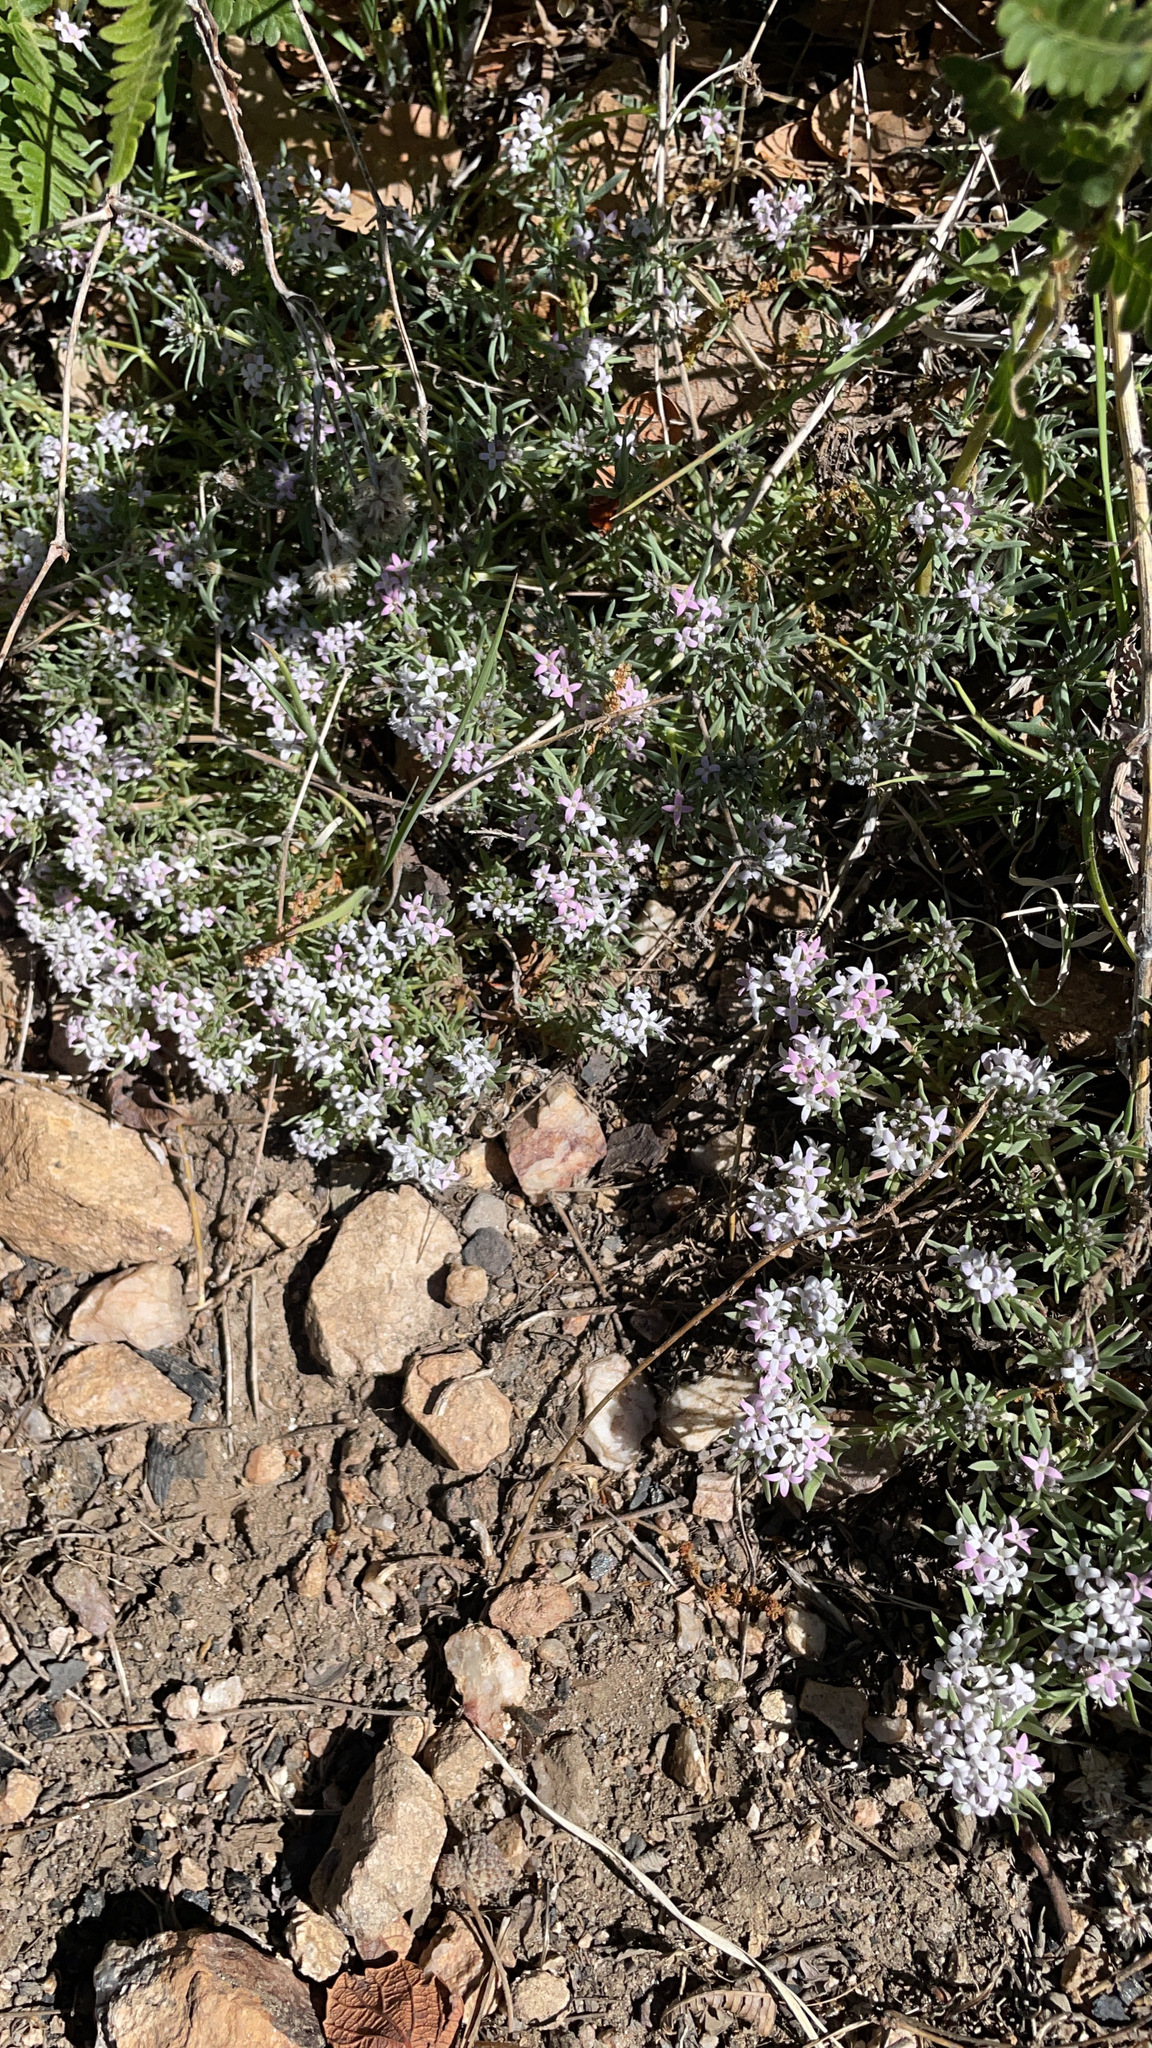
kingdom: Plantae
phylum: Tracheophyta
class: Magnoliopsida
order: Gentianales
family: Rubiaceae
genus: Houstonia
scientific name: Houstonia wrightii
